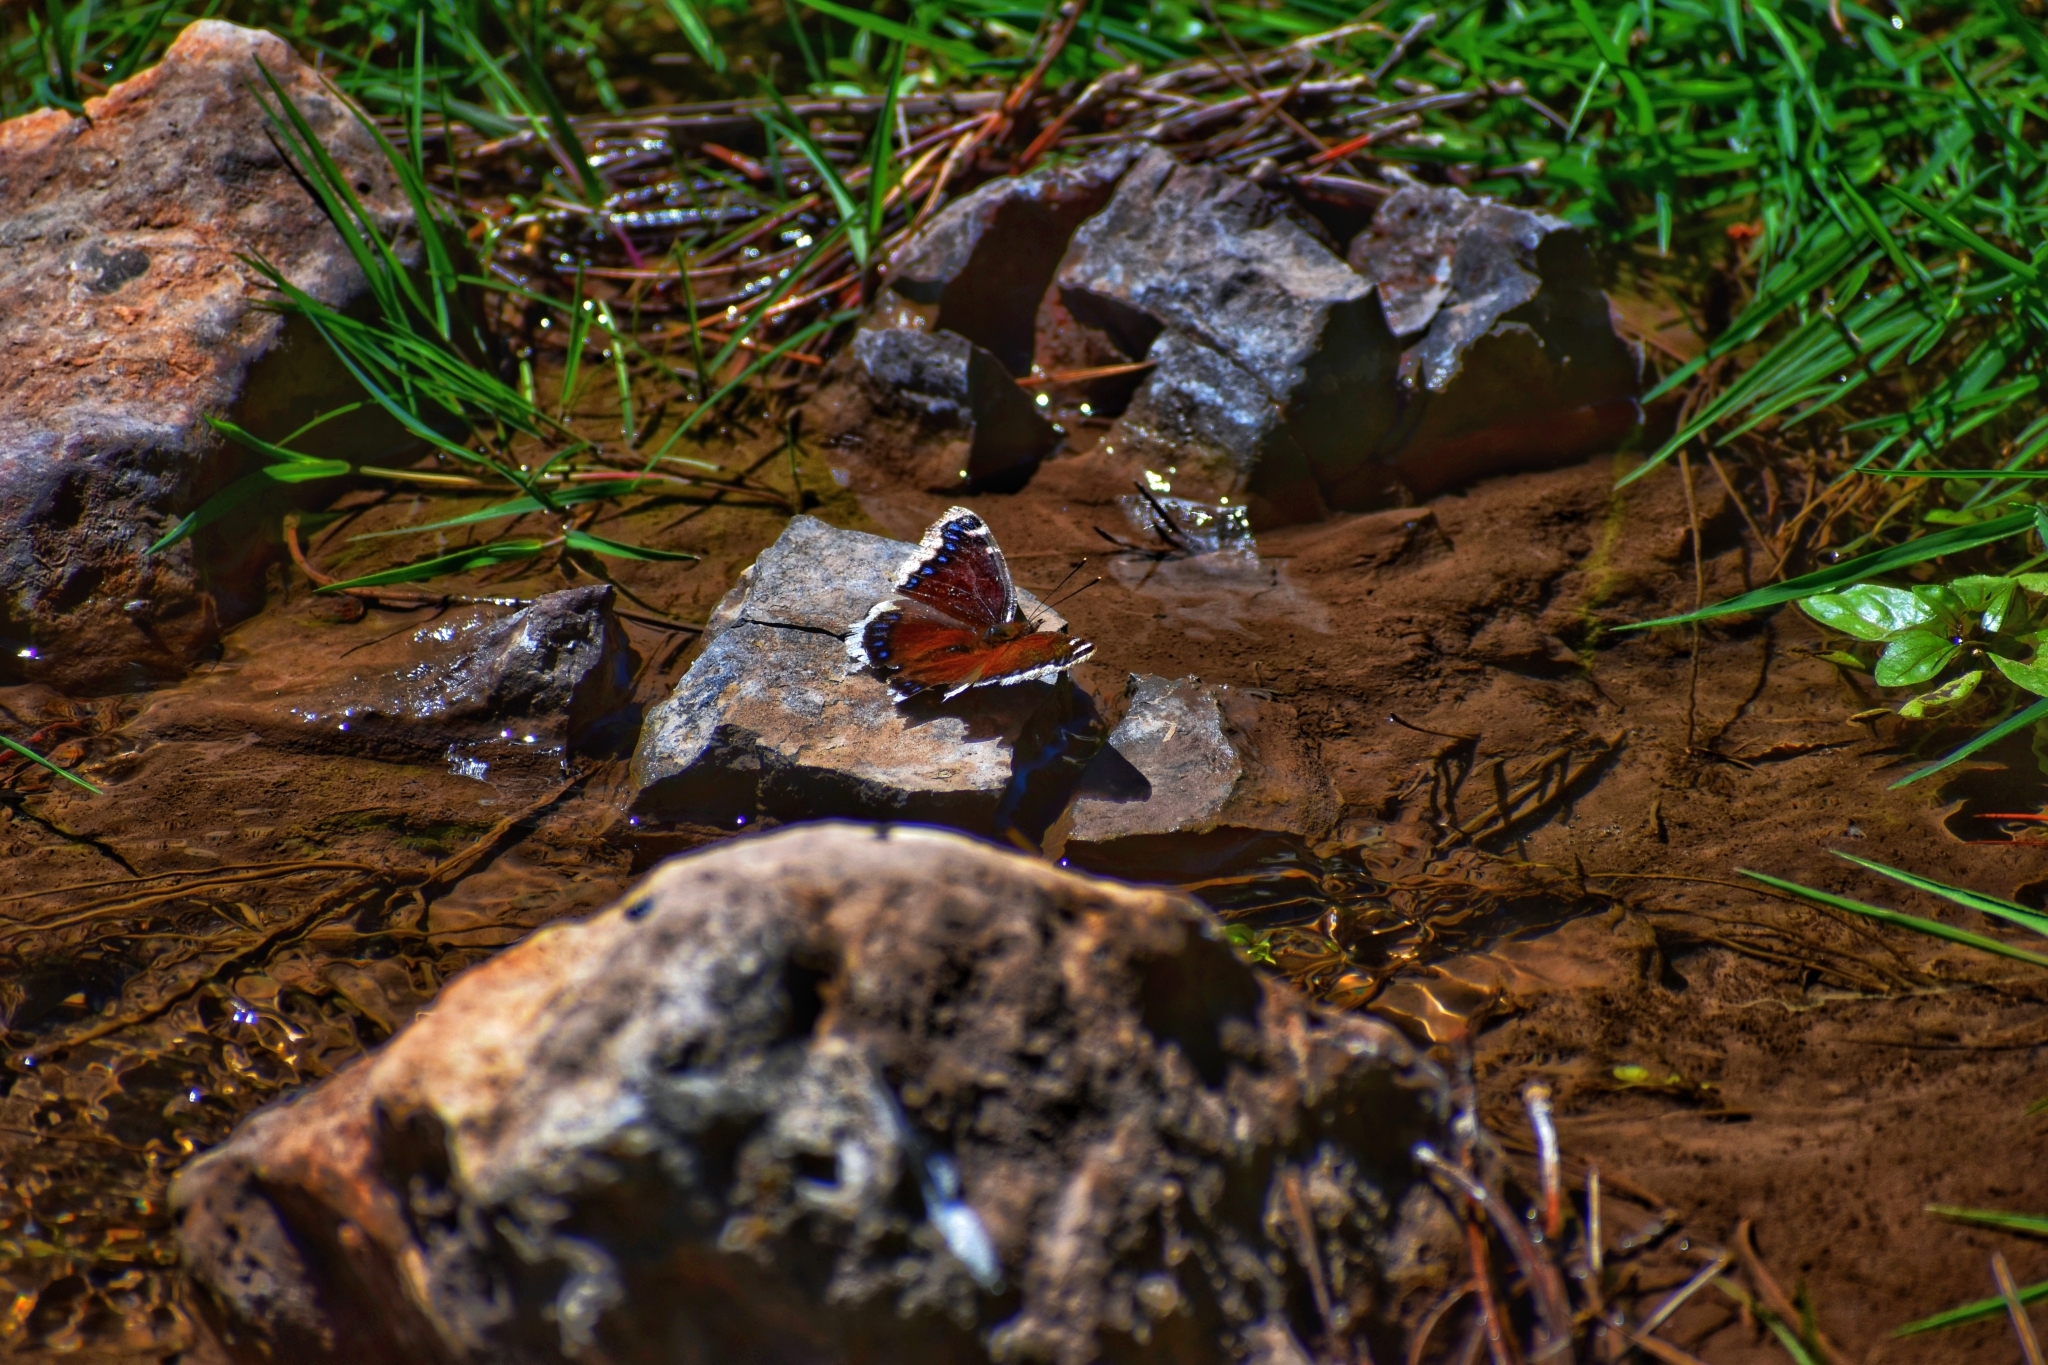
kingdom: Animalia
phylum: Arthropoda
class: Insecta
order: Lepidoptera
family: Nymphalidae
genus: Nymphalis
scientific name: Nymphalis antiopa
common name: Camberwell beauty
